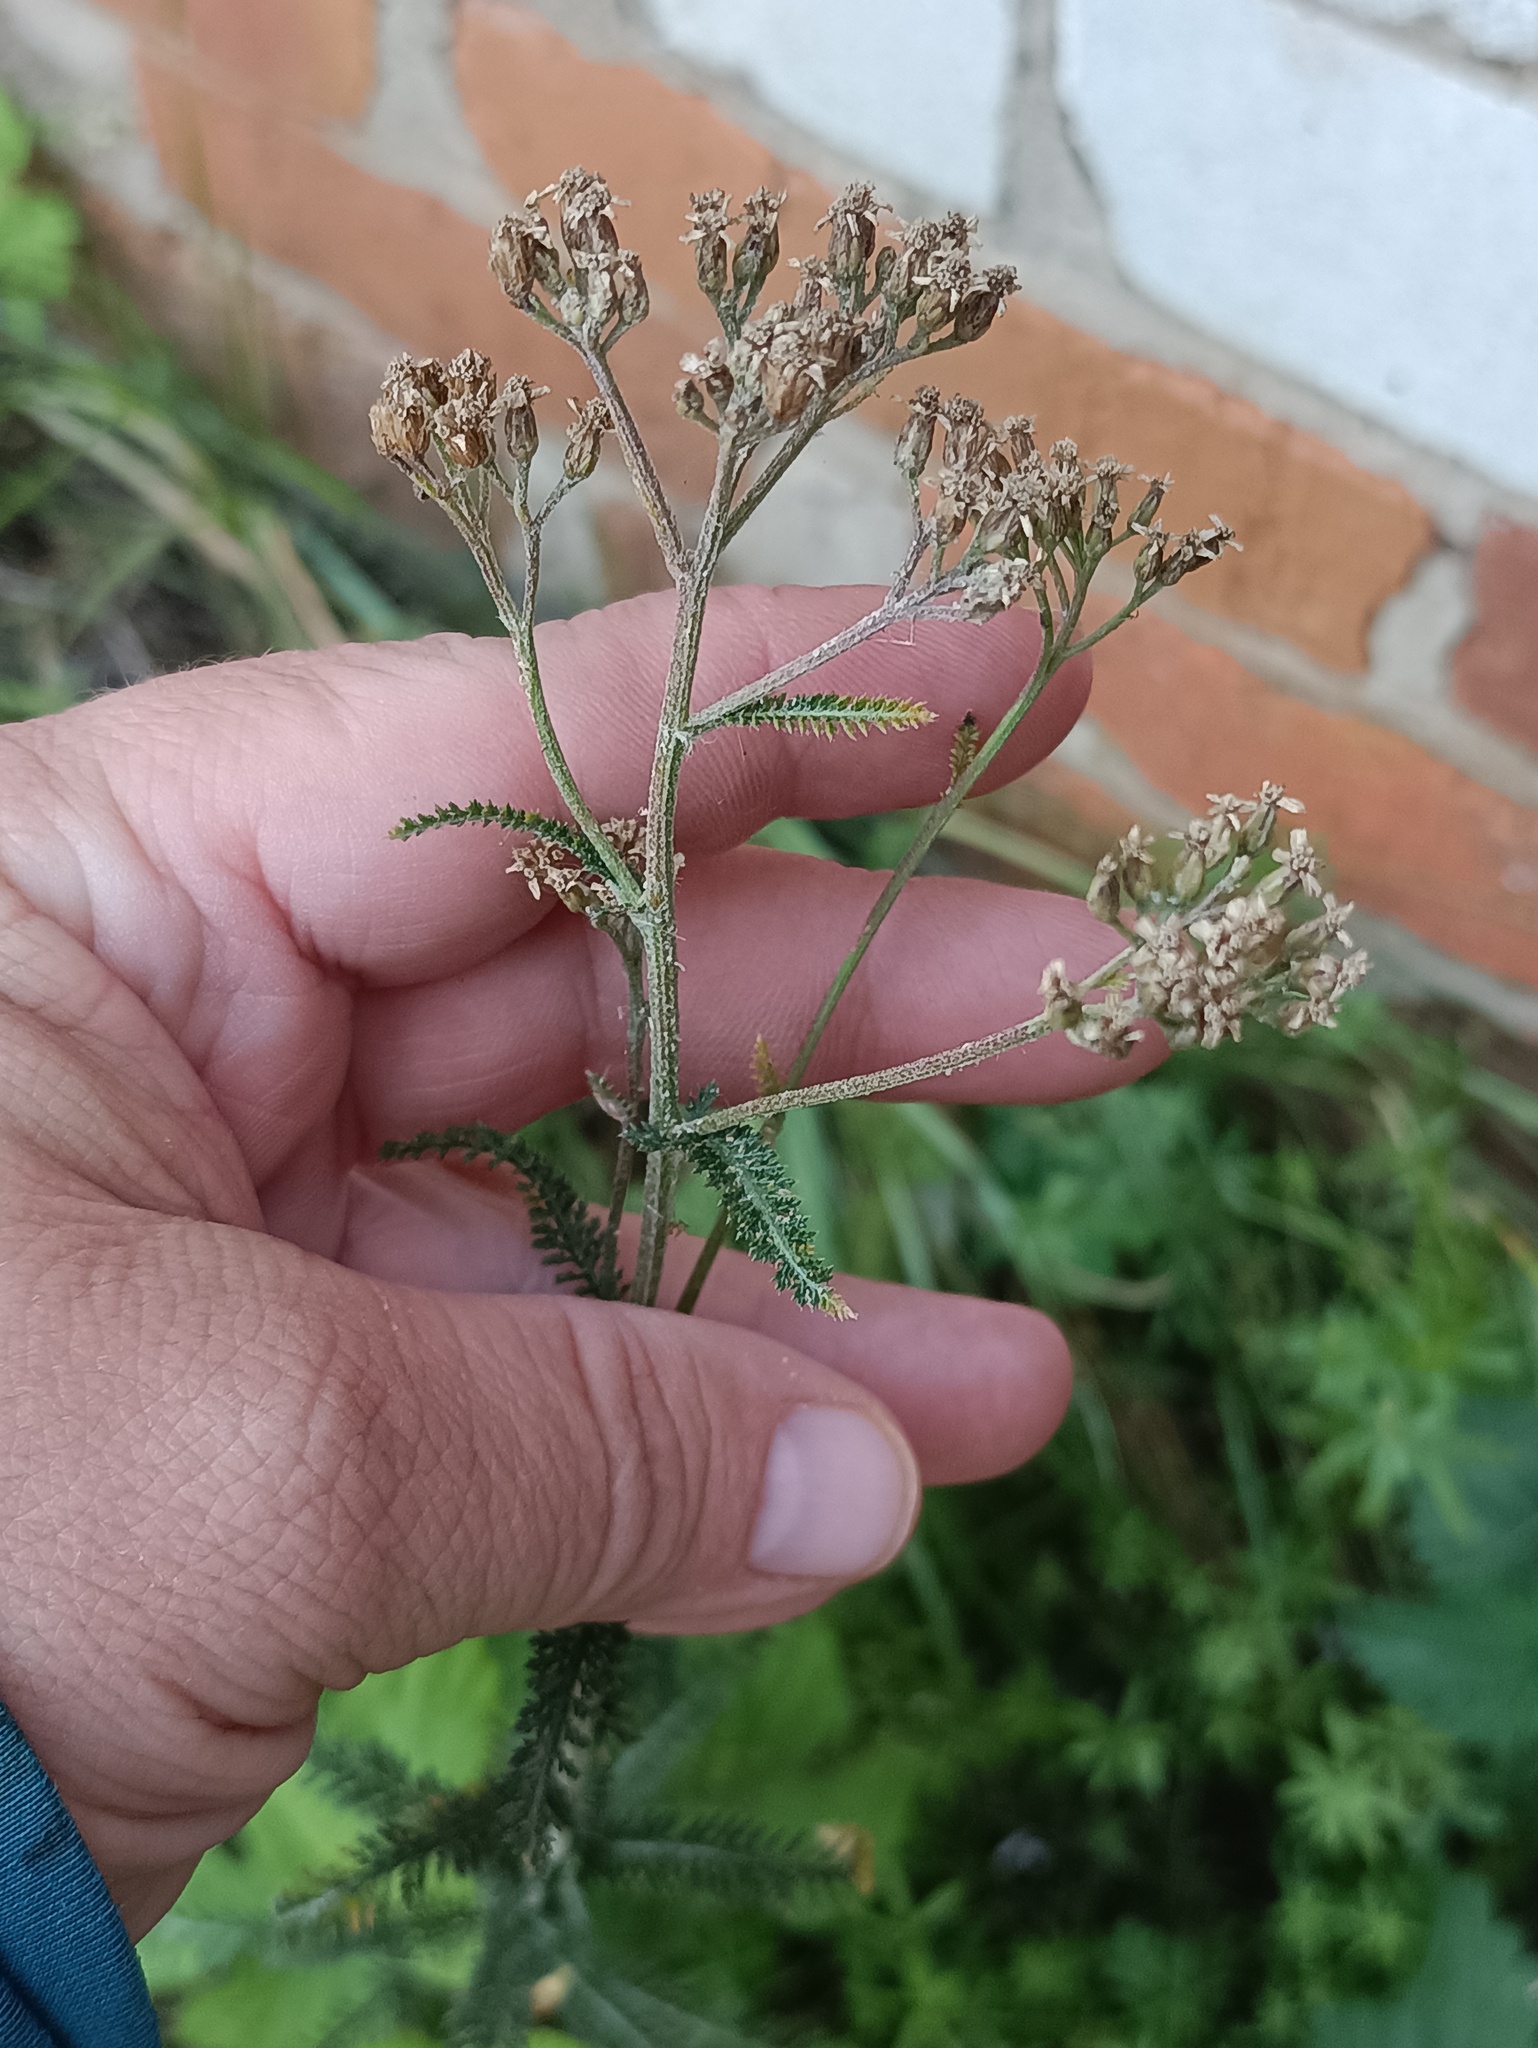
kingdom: Plantae
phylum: Tracheophyta
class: Magnoliopsida
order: Asterales
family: Asteraceae
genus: Achillea
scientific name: Achillea millefolium
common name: Yarrow
